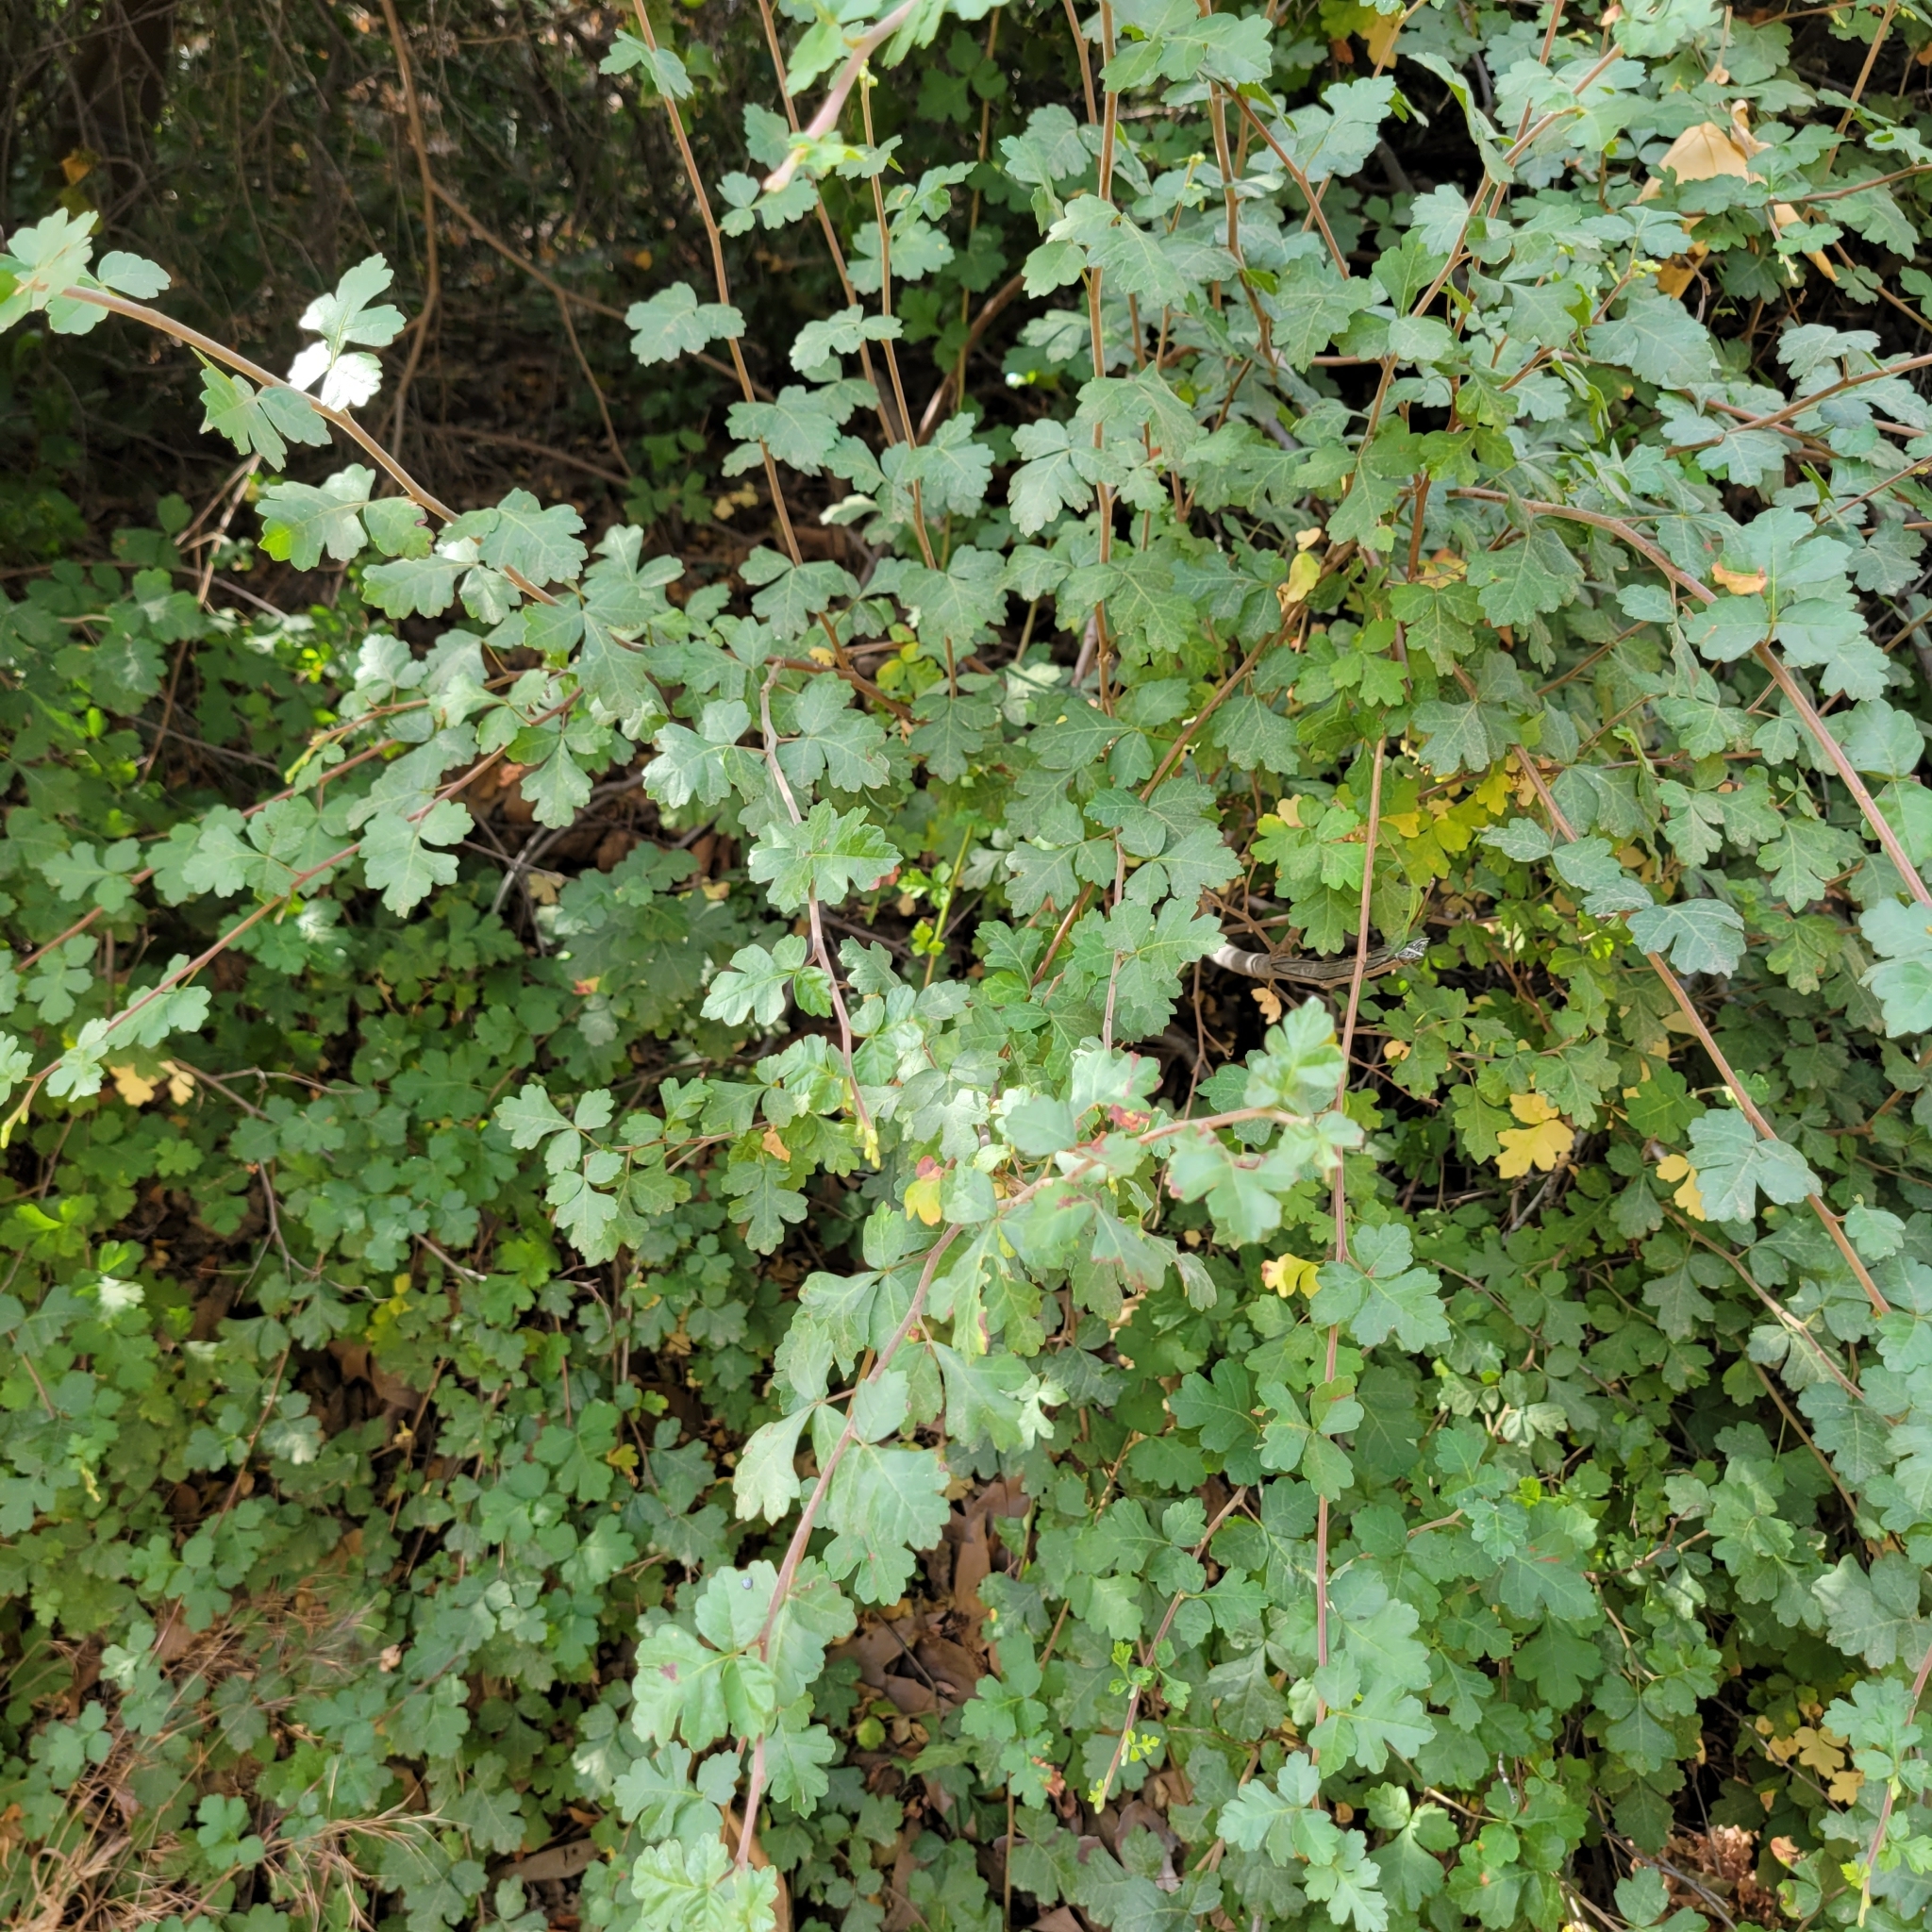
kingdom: Plantae
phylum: Tracheophyta
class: Magnoliopsida
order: Sapindales
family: Anacardiaceae
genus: Rhus
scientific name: Rhus aromatica
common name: Aromatic sumac
